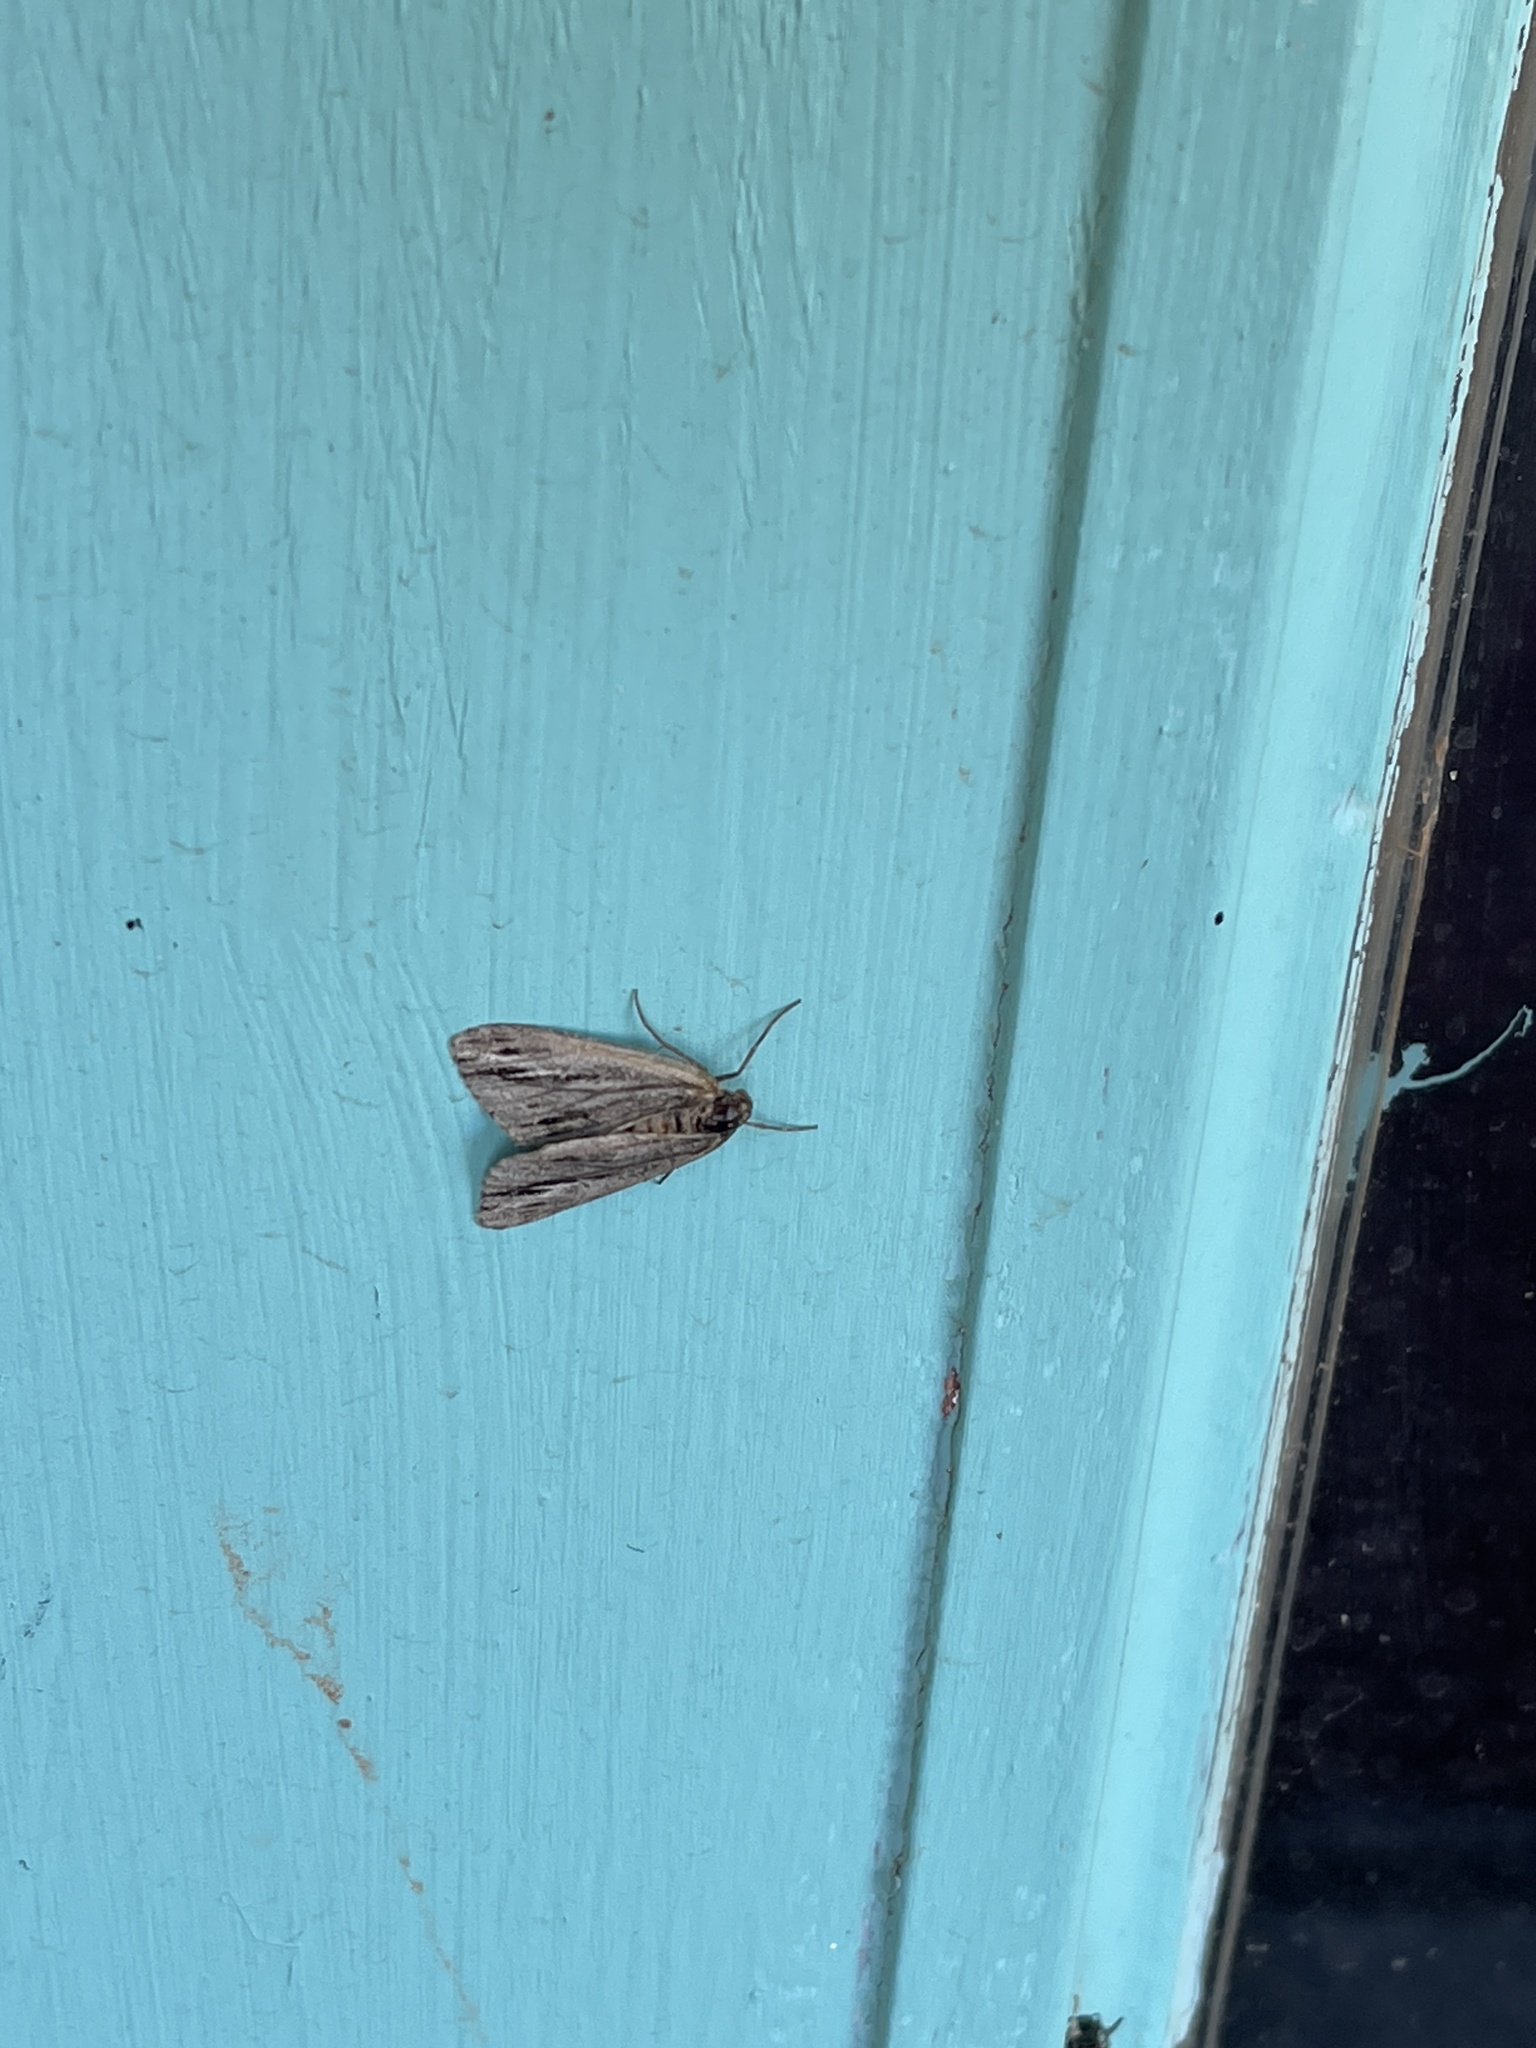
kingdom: Animalia
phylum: Arthropoda
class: Insecta
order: Lepidoptera
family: Noctuidae
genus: Catabenoides
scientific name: Catabenoides terminellus
